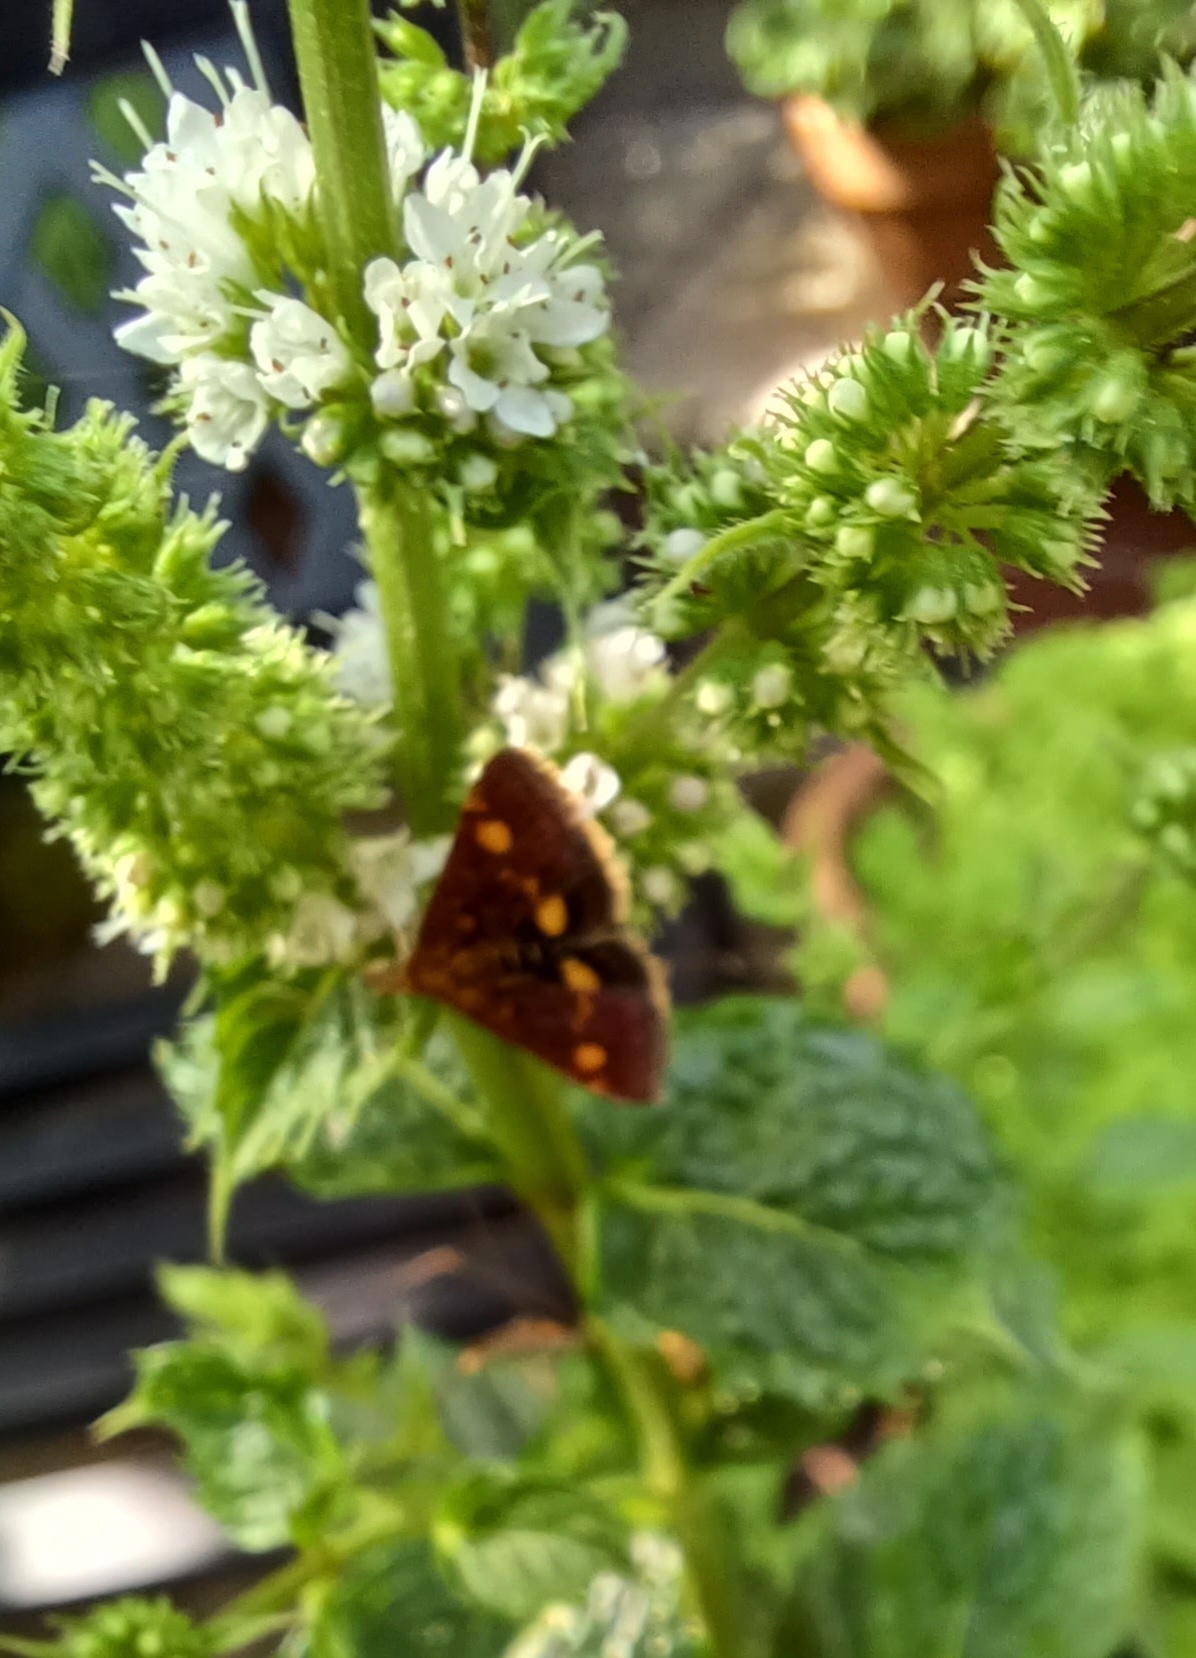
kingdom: Animalia
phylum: Arthropoda
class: Insecta
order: Lepidoptera
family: Crambidae
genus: Pyrausta
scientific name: Pyrausta aurata
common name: Small purple & gold
